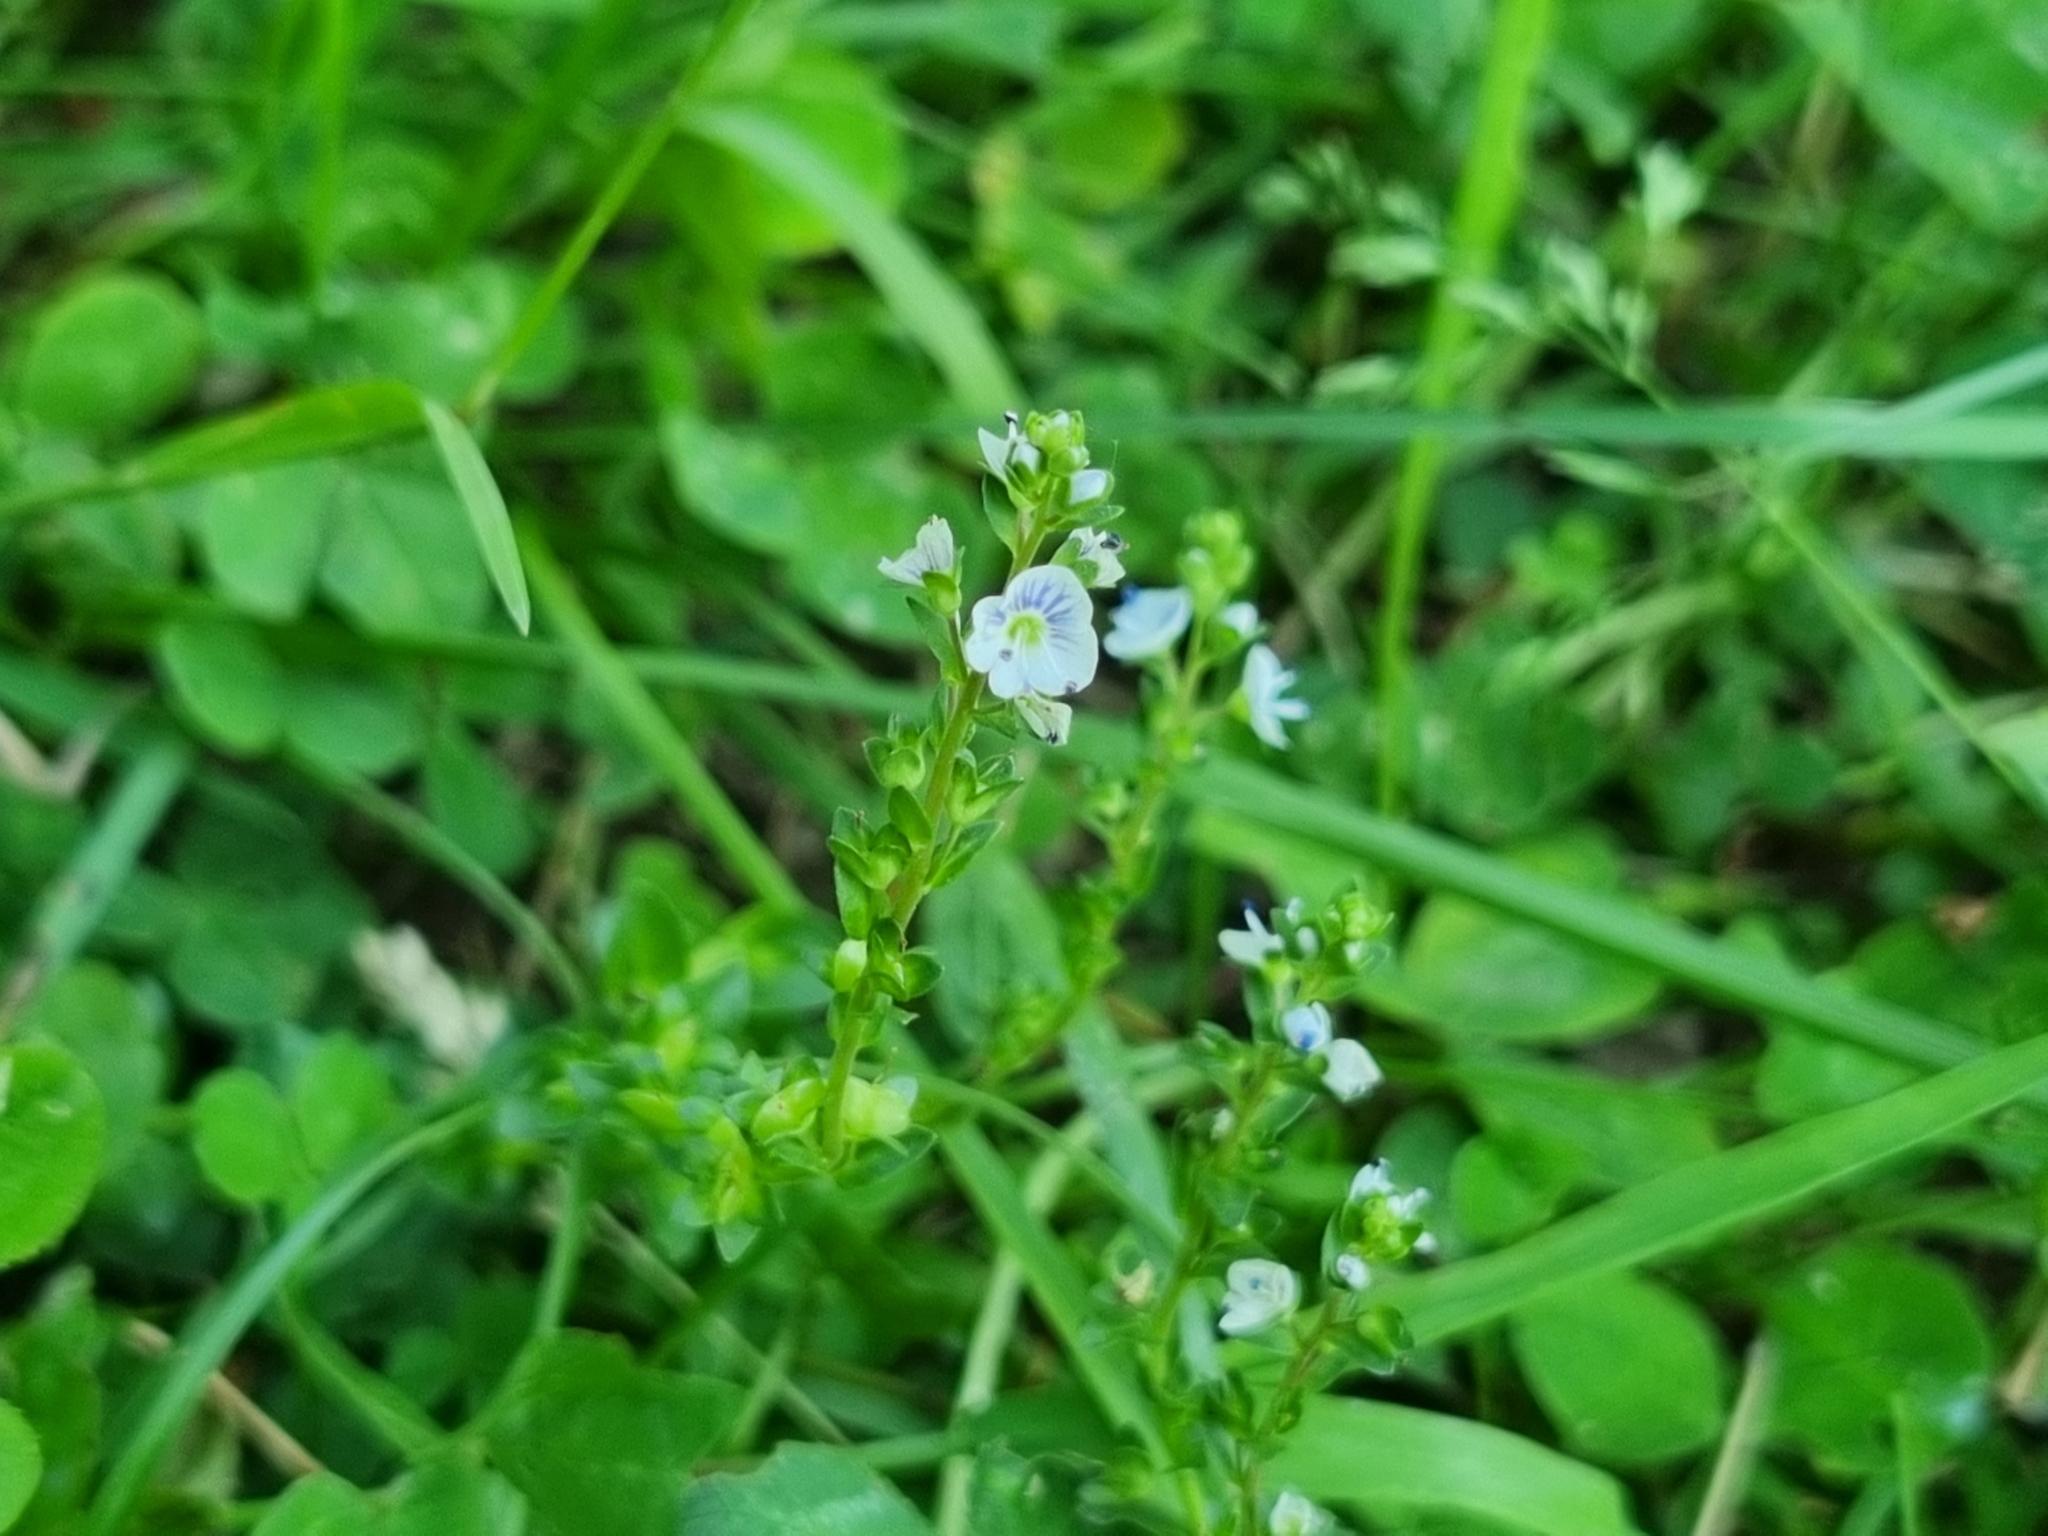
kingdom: Plantae
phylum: Tracheophyta
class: Magnoliopsida
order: Lamiales
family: Plantaginaceae
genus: Veronica
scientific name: Veronica serpyllifolia
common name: Thyme-leaved speedwell
